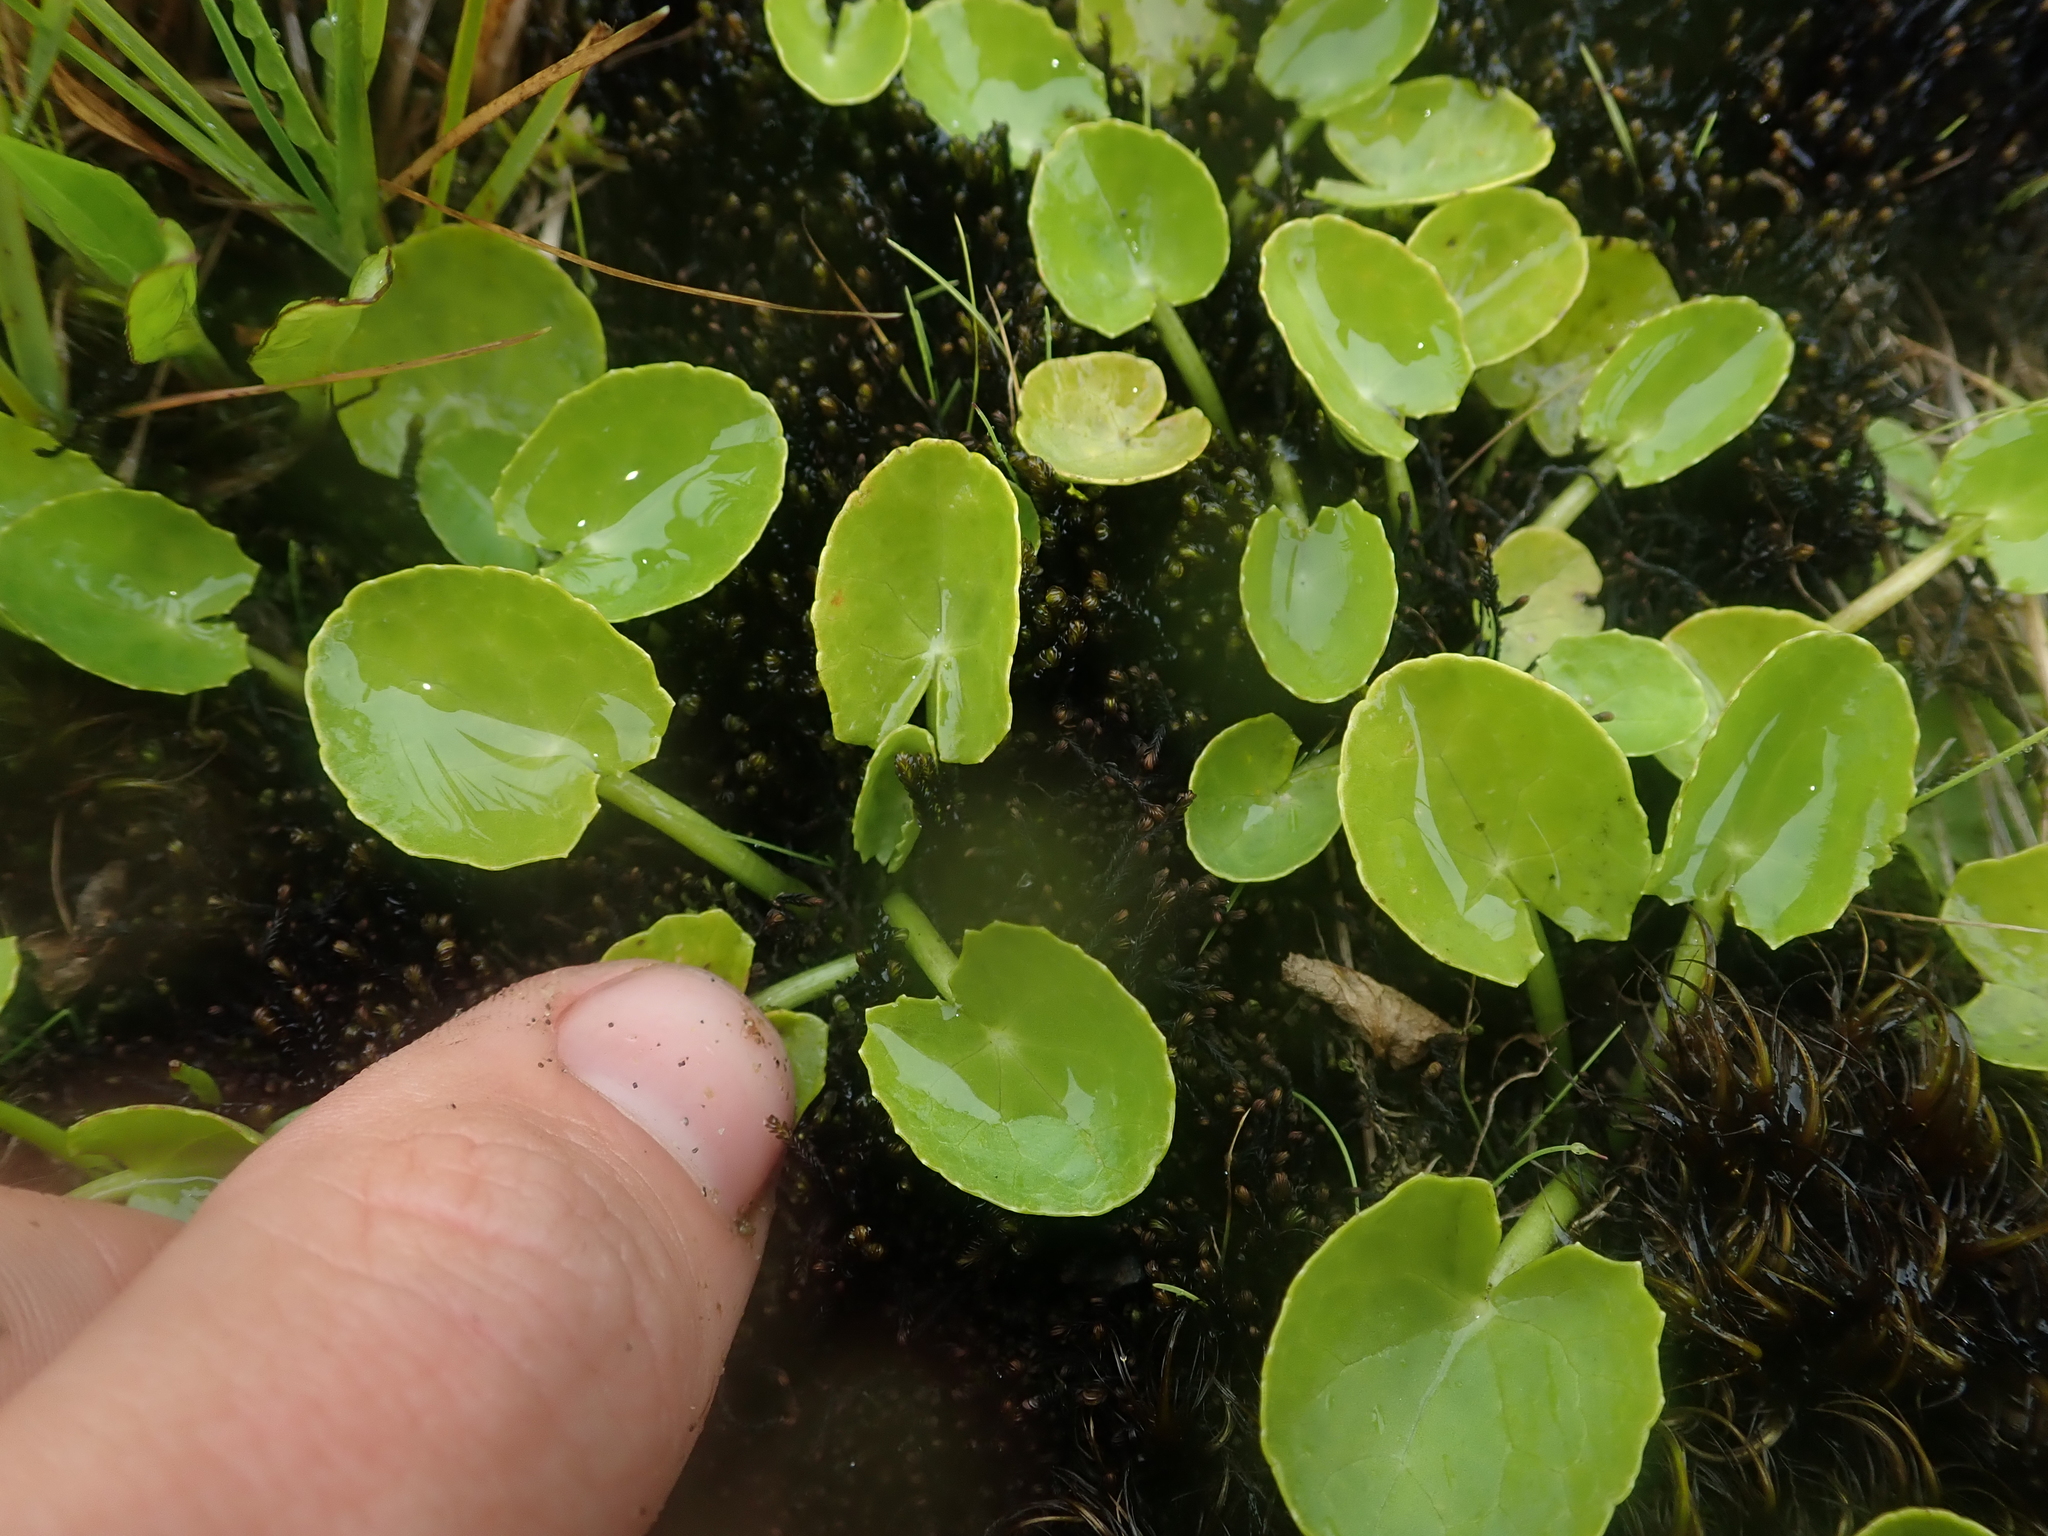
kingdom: Plantae
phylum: Tracheophyta
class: Magnoliopsida
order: Apiales
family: Apiaceae
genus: Centella
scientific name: Centella asiatica
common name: Spadeleaf
